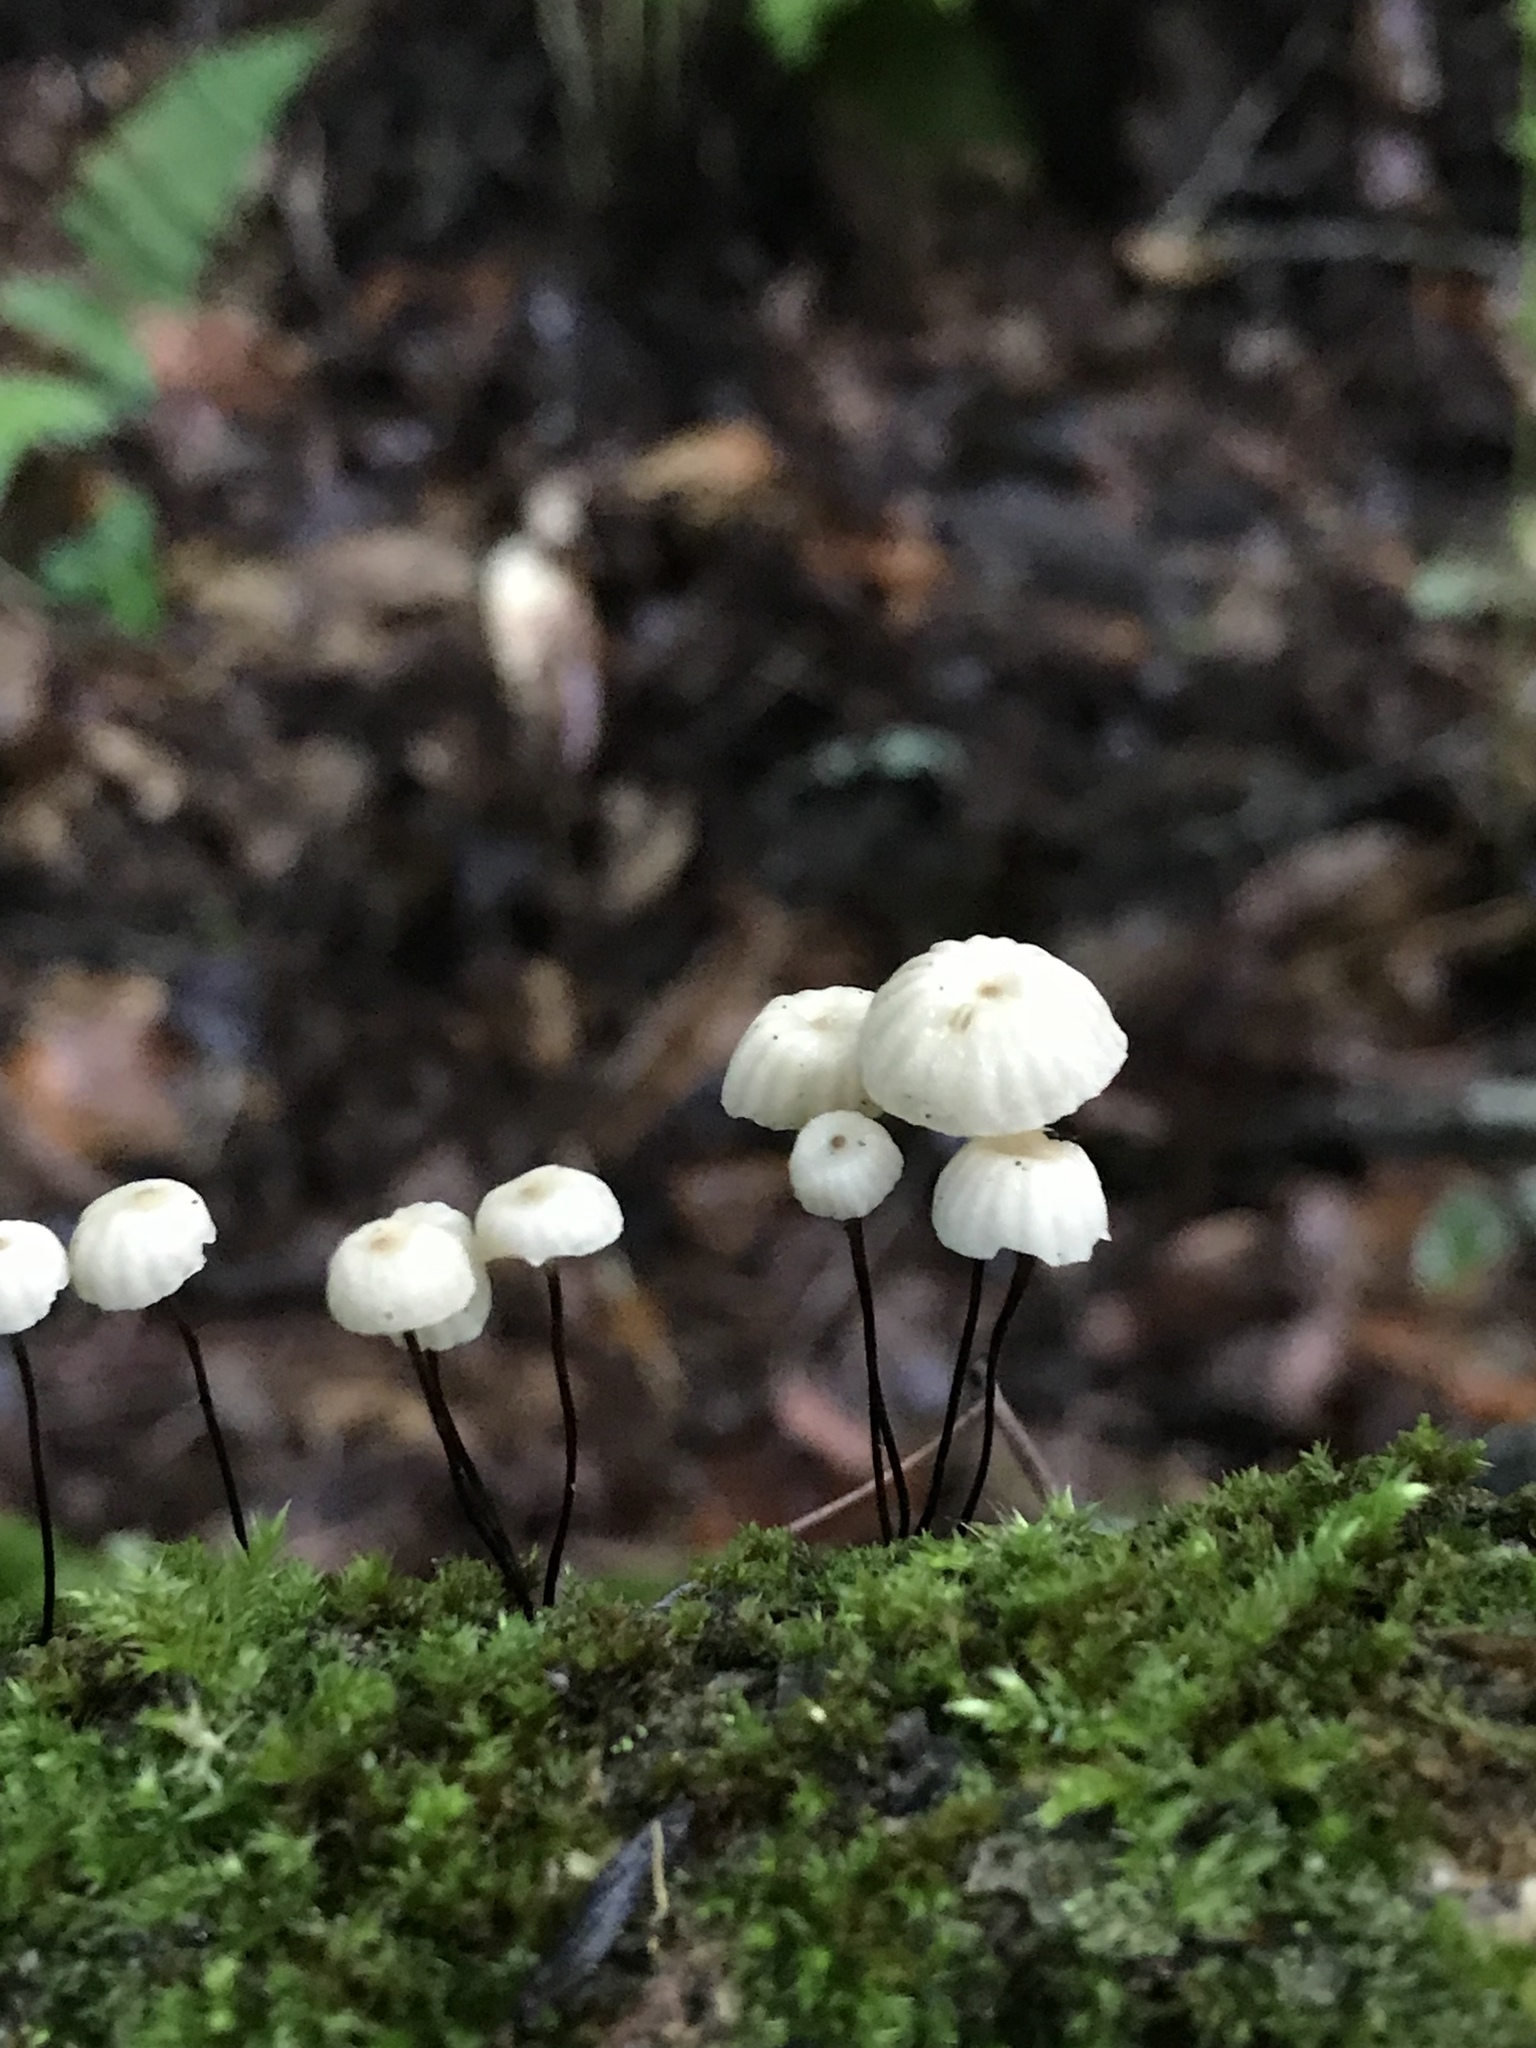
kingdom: Fungi
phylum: Basidiomycota
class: Agaricomycetes
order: Agaricales
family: Marasmiaceae
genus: Marasmius
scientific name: Marasmius rotula
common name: Collared parachute
